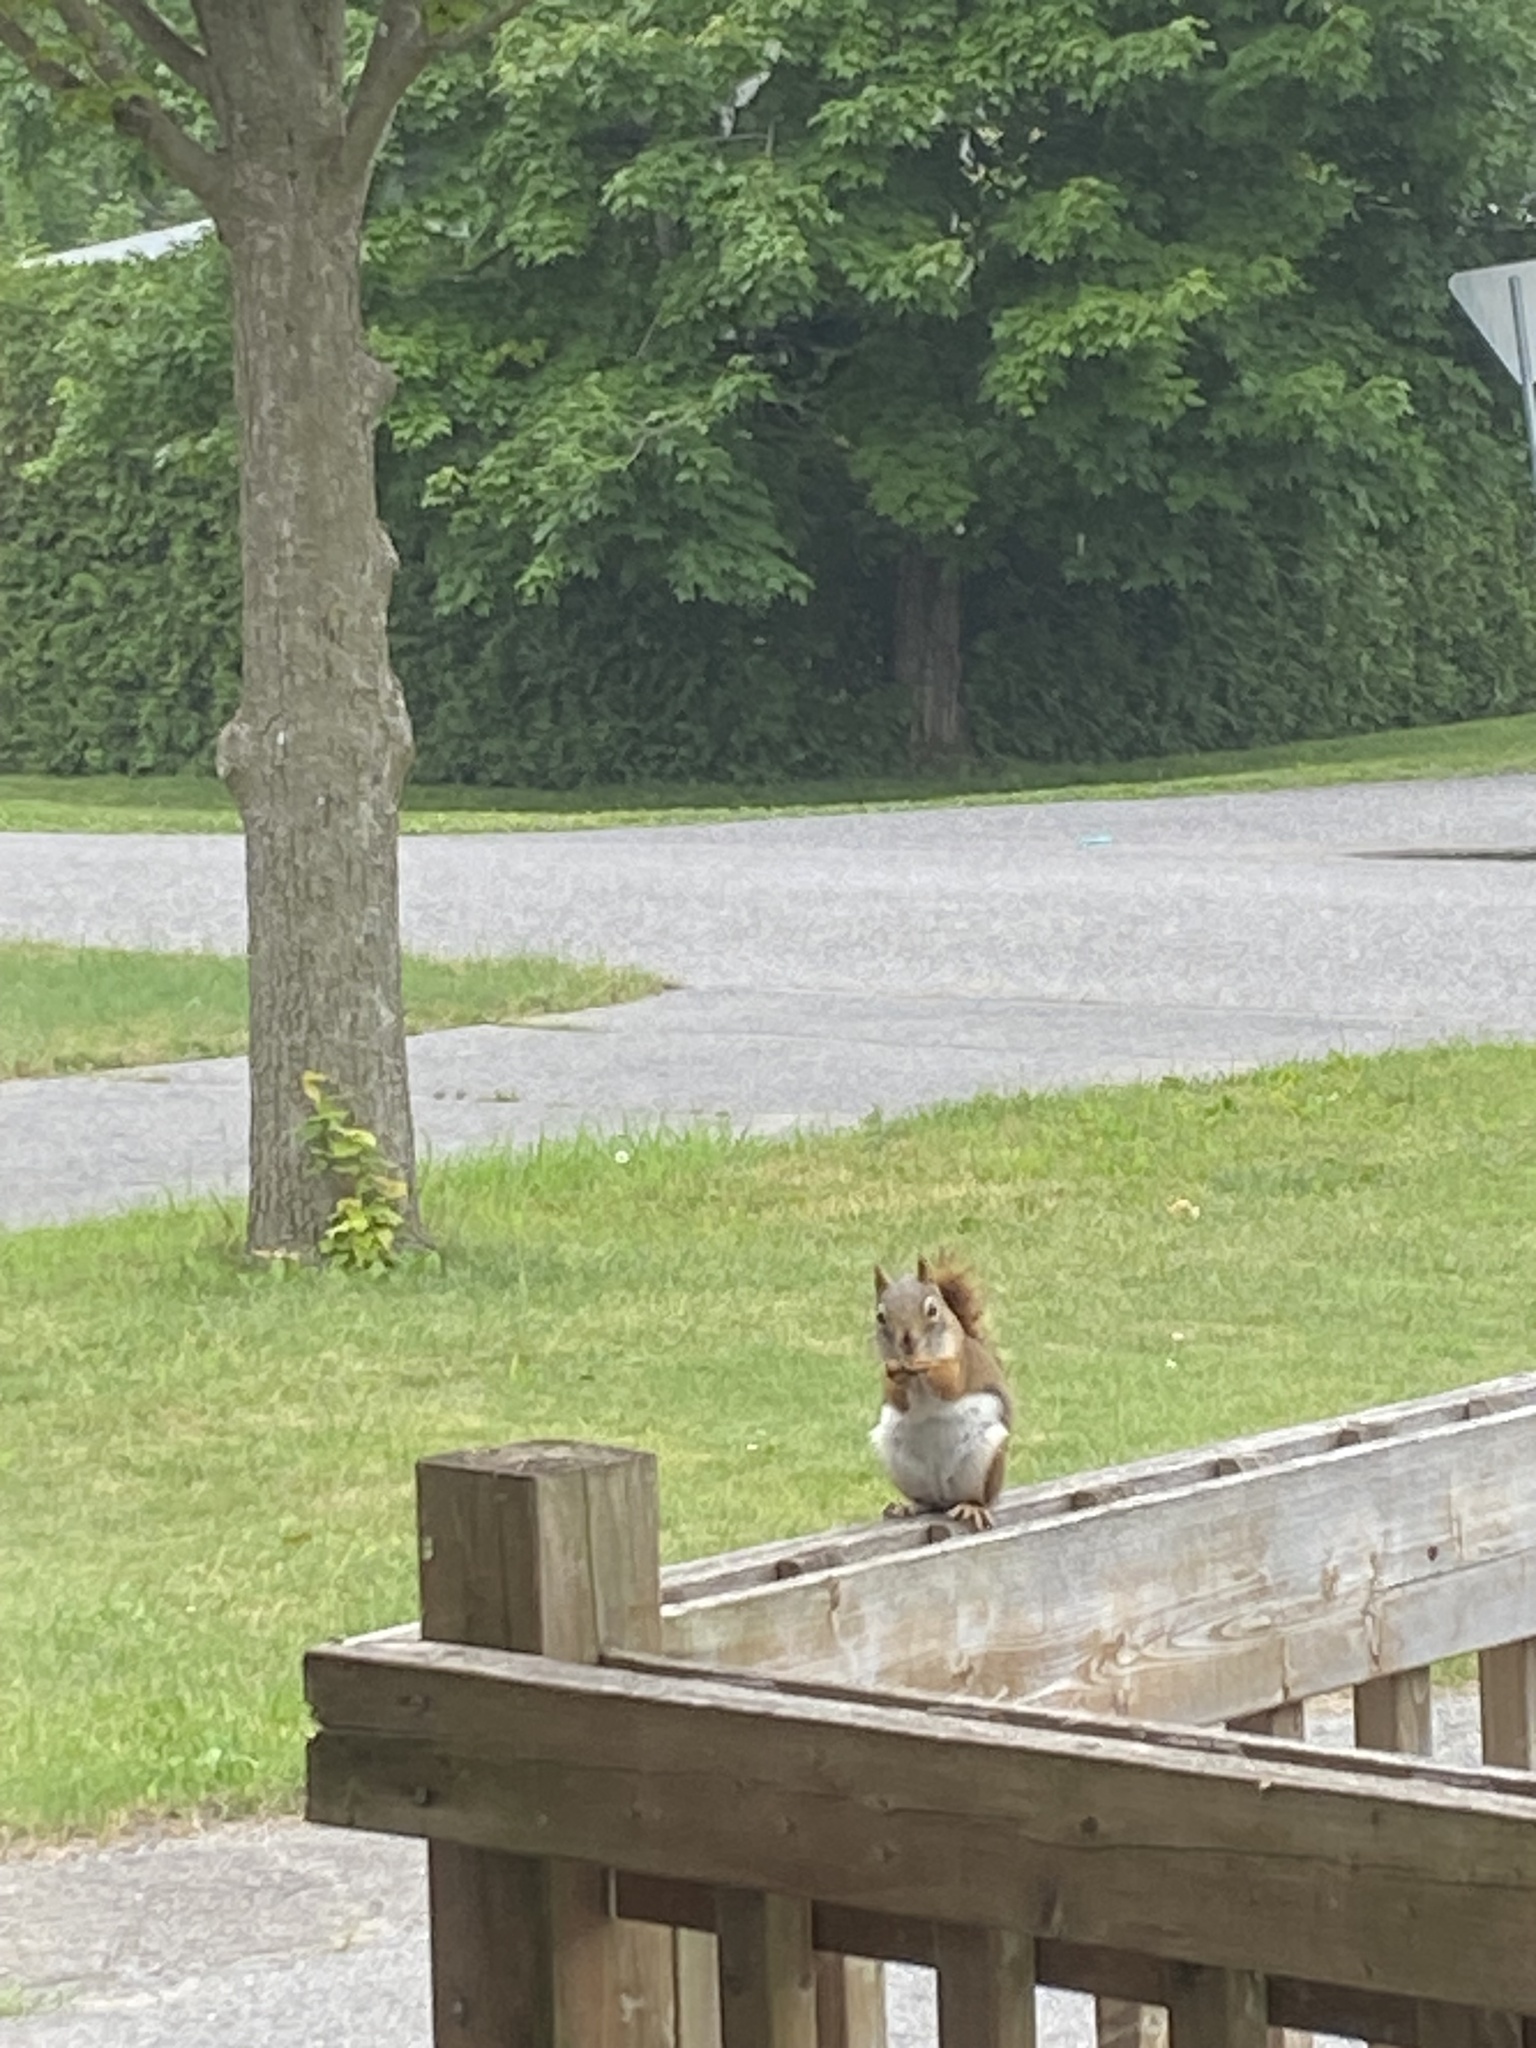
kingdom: Animalia
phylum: Chordata
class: Mammalia
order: Rodentia
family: Sciuridae
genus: Tamiasciurus
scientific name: Tamiasciurus hudsonicus
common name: Red squirrel
